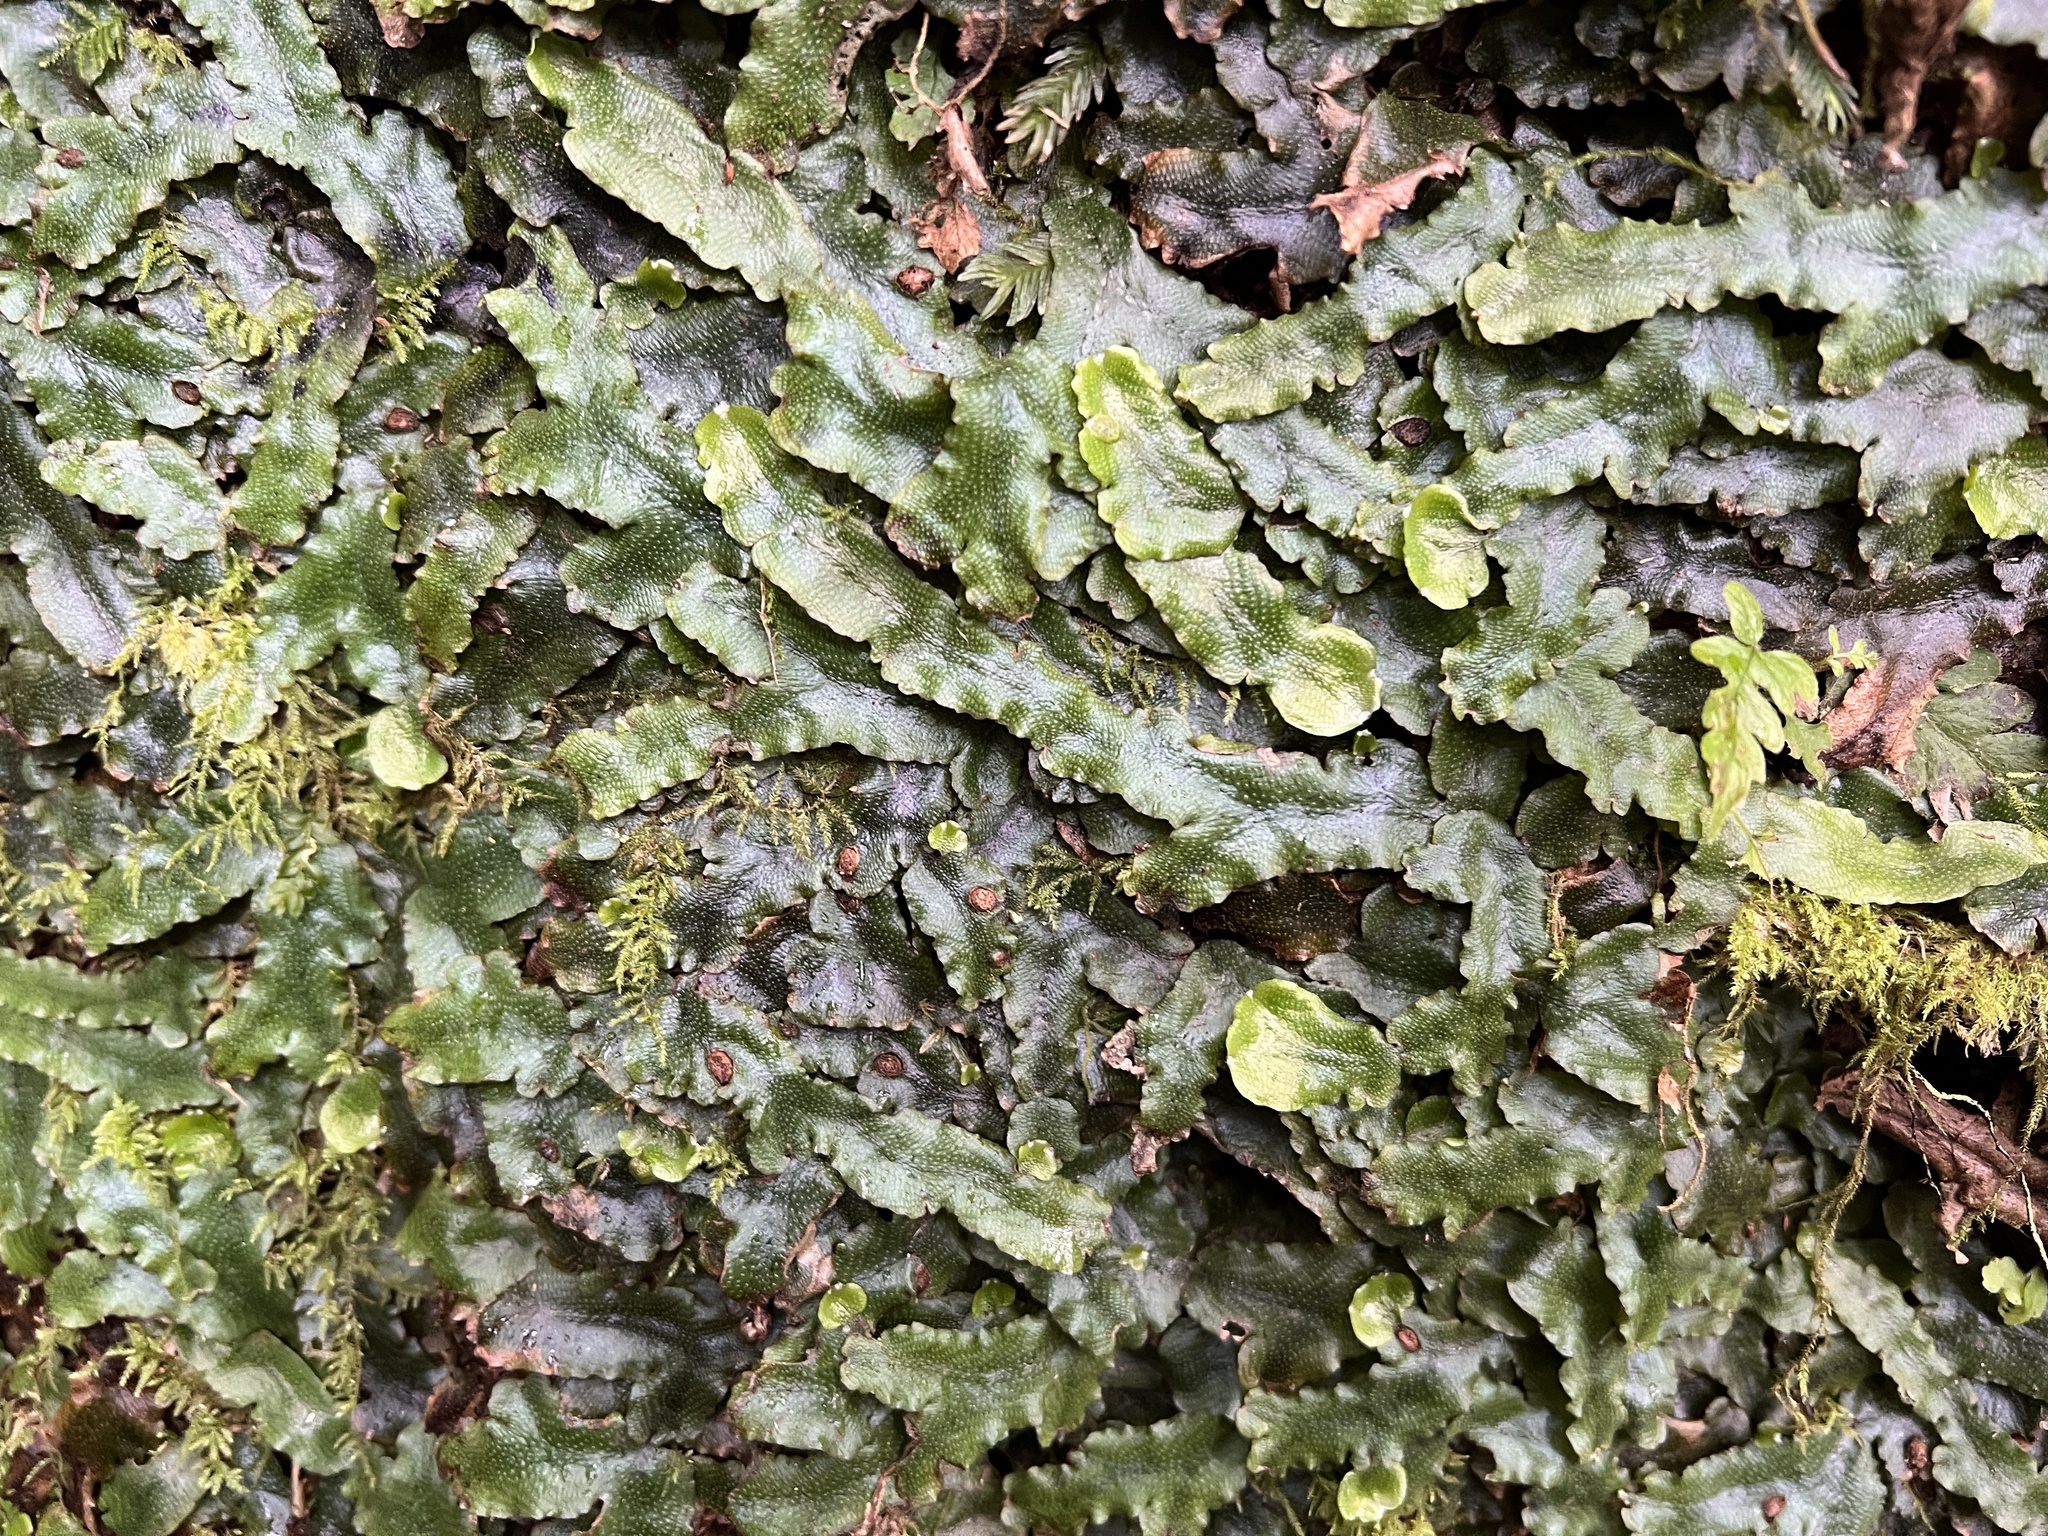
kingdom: Plantae
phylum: Marchantiophyta
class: Marchantiopsida
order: Marchantiales
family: Conocephalaceae
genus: Conocephalum
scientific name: Conocephalum conicum
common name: Great scented liverwort
